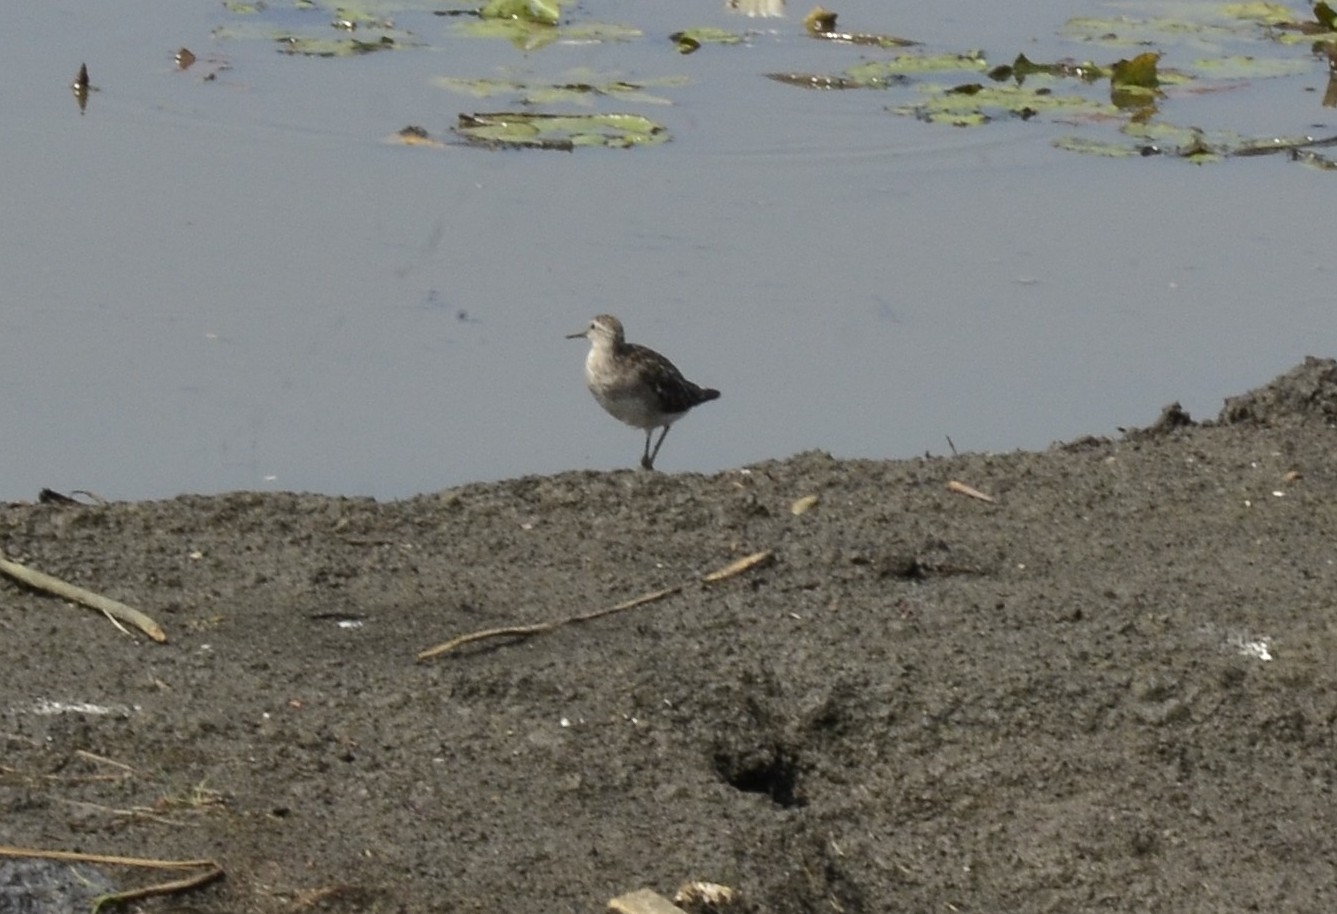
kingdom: Animalia
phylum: Chordata
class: Aves
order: Charadriiformes
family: Scolopacidae
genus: Tringa
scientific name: Tringa glareola
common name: Wood sandpiper
